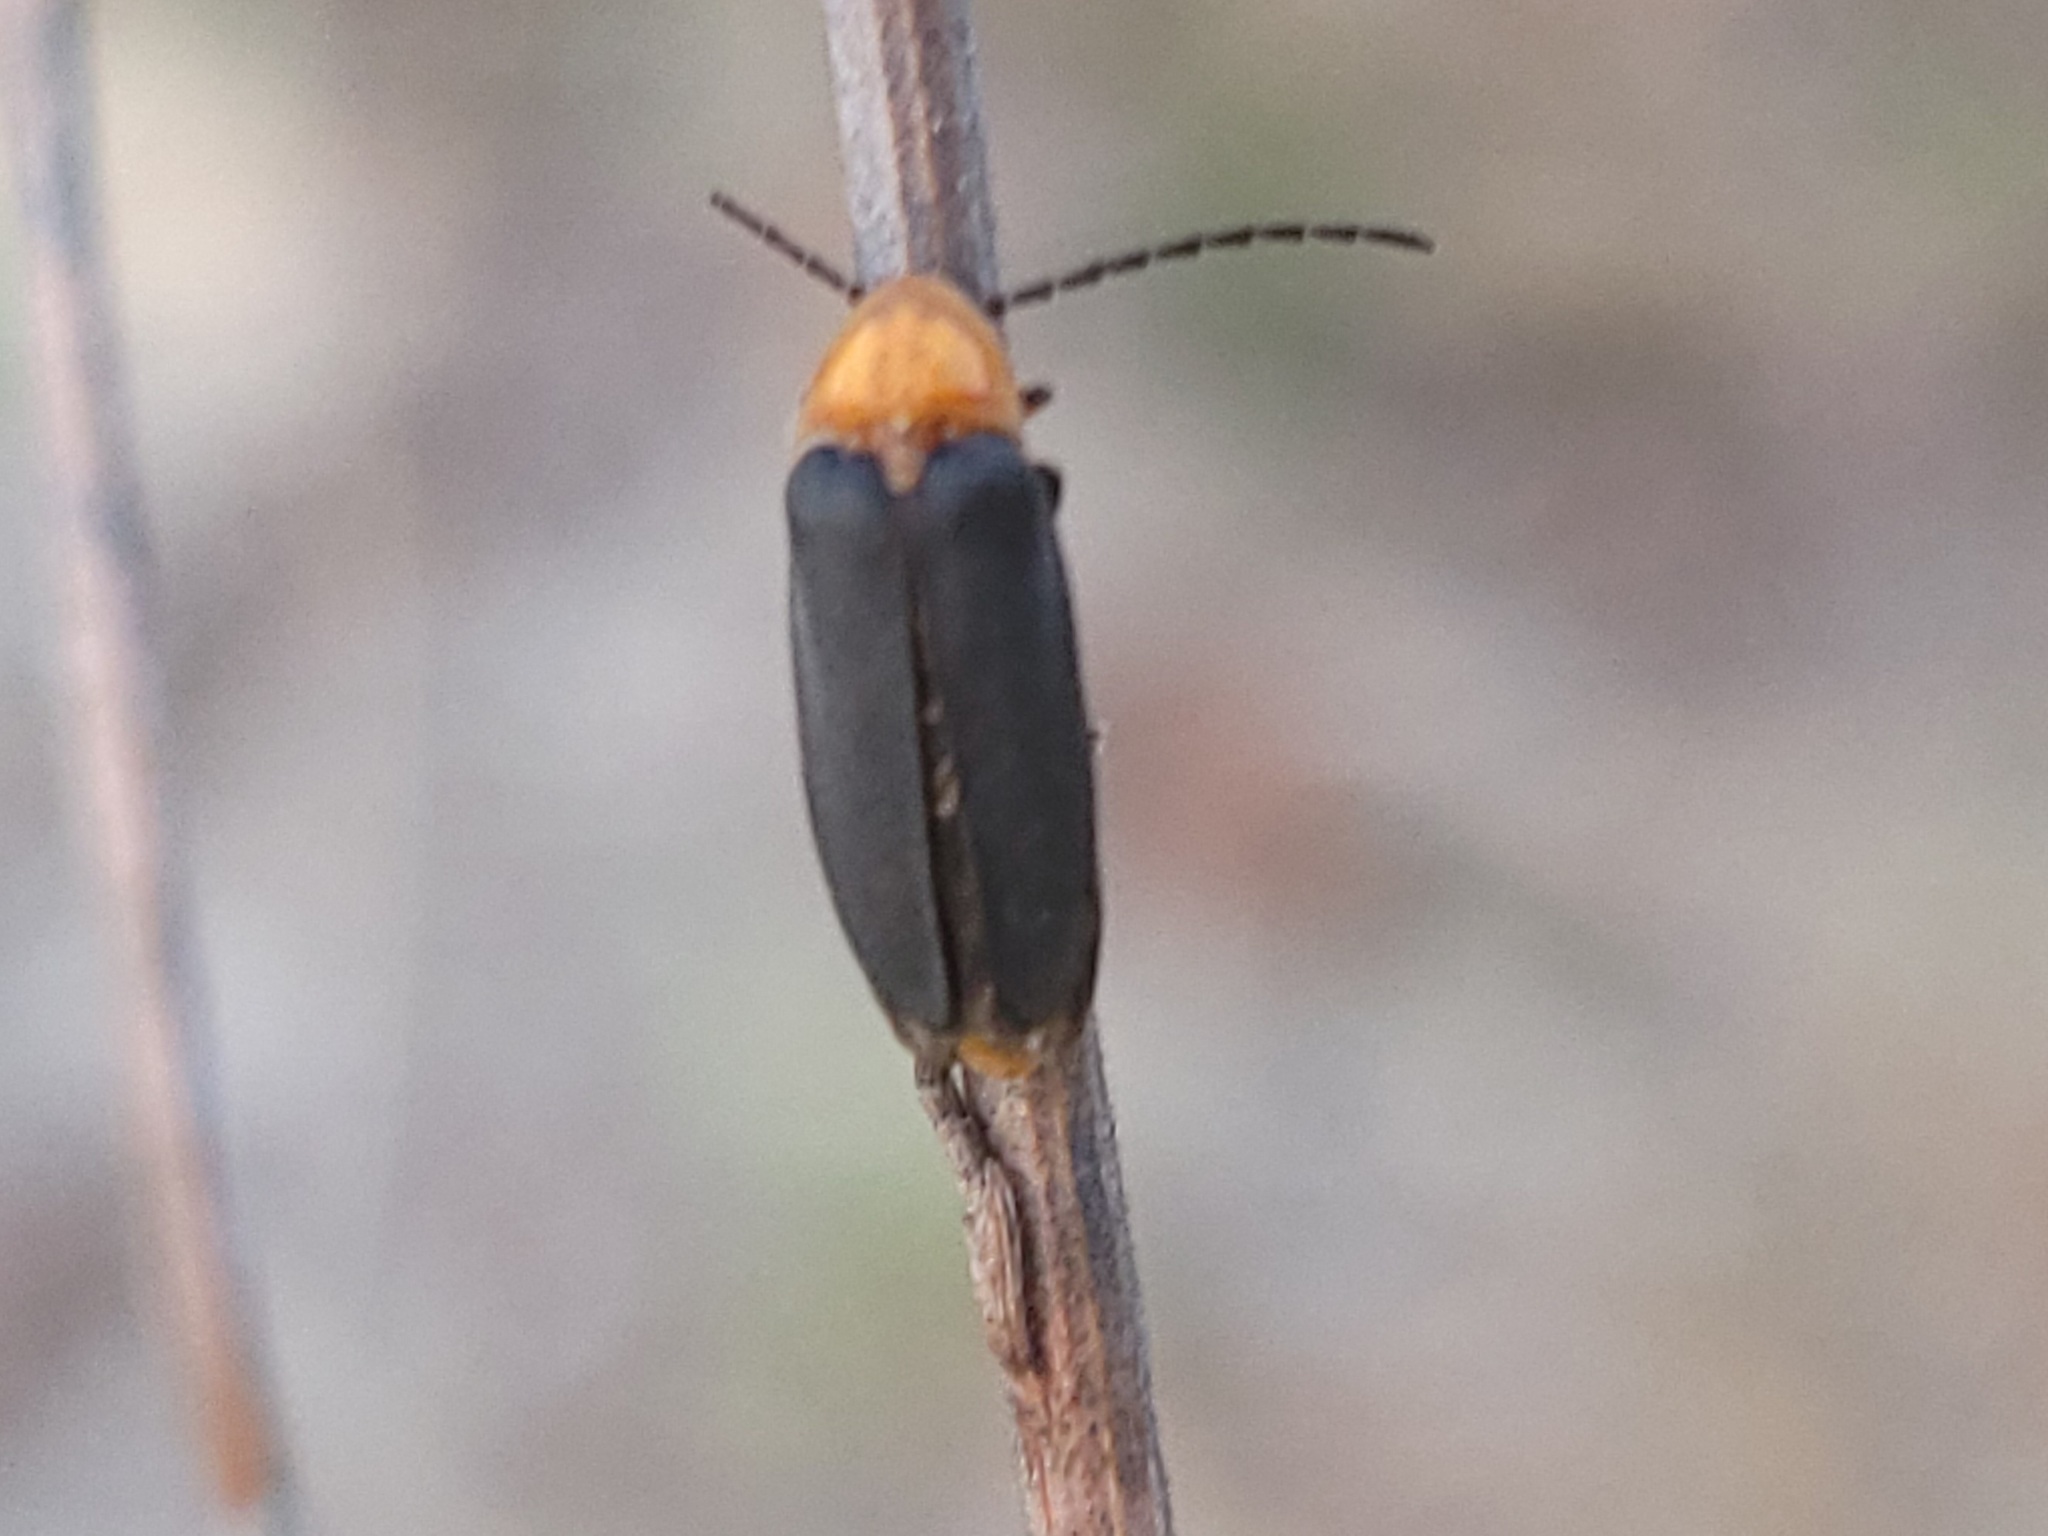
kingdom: Animalia
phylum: Arthropoda
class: Insecta
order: Coleoptera
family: Lampyridae
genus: Lucidota
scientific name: Lucidota luteicollis
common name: Florida scrub dark firefly
